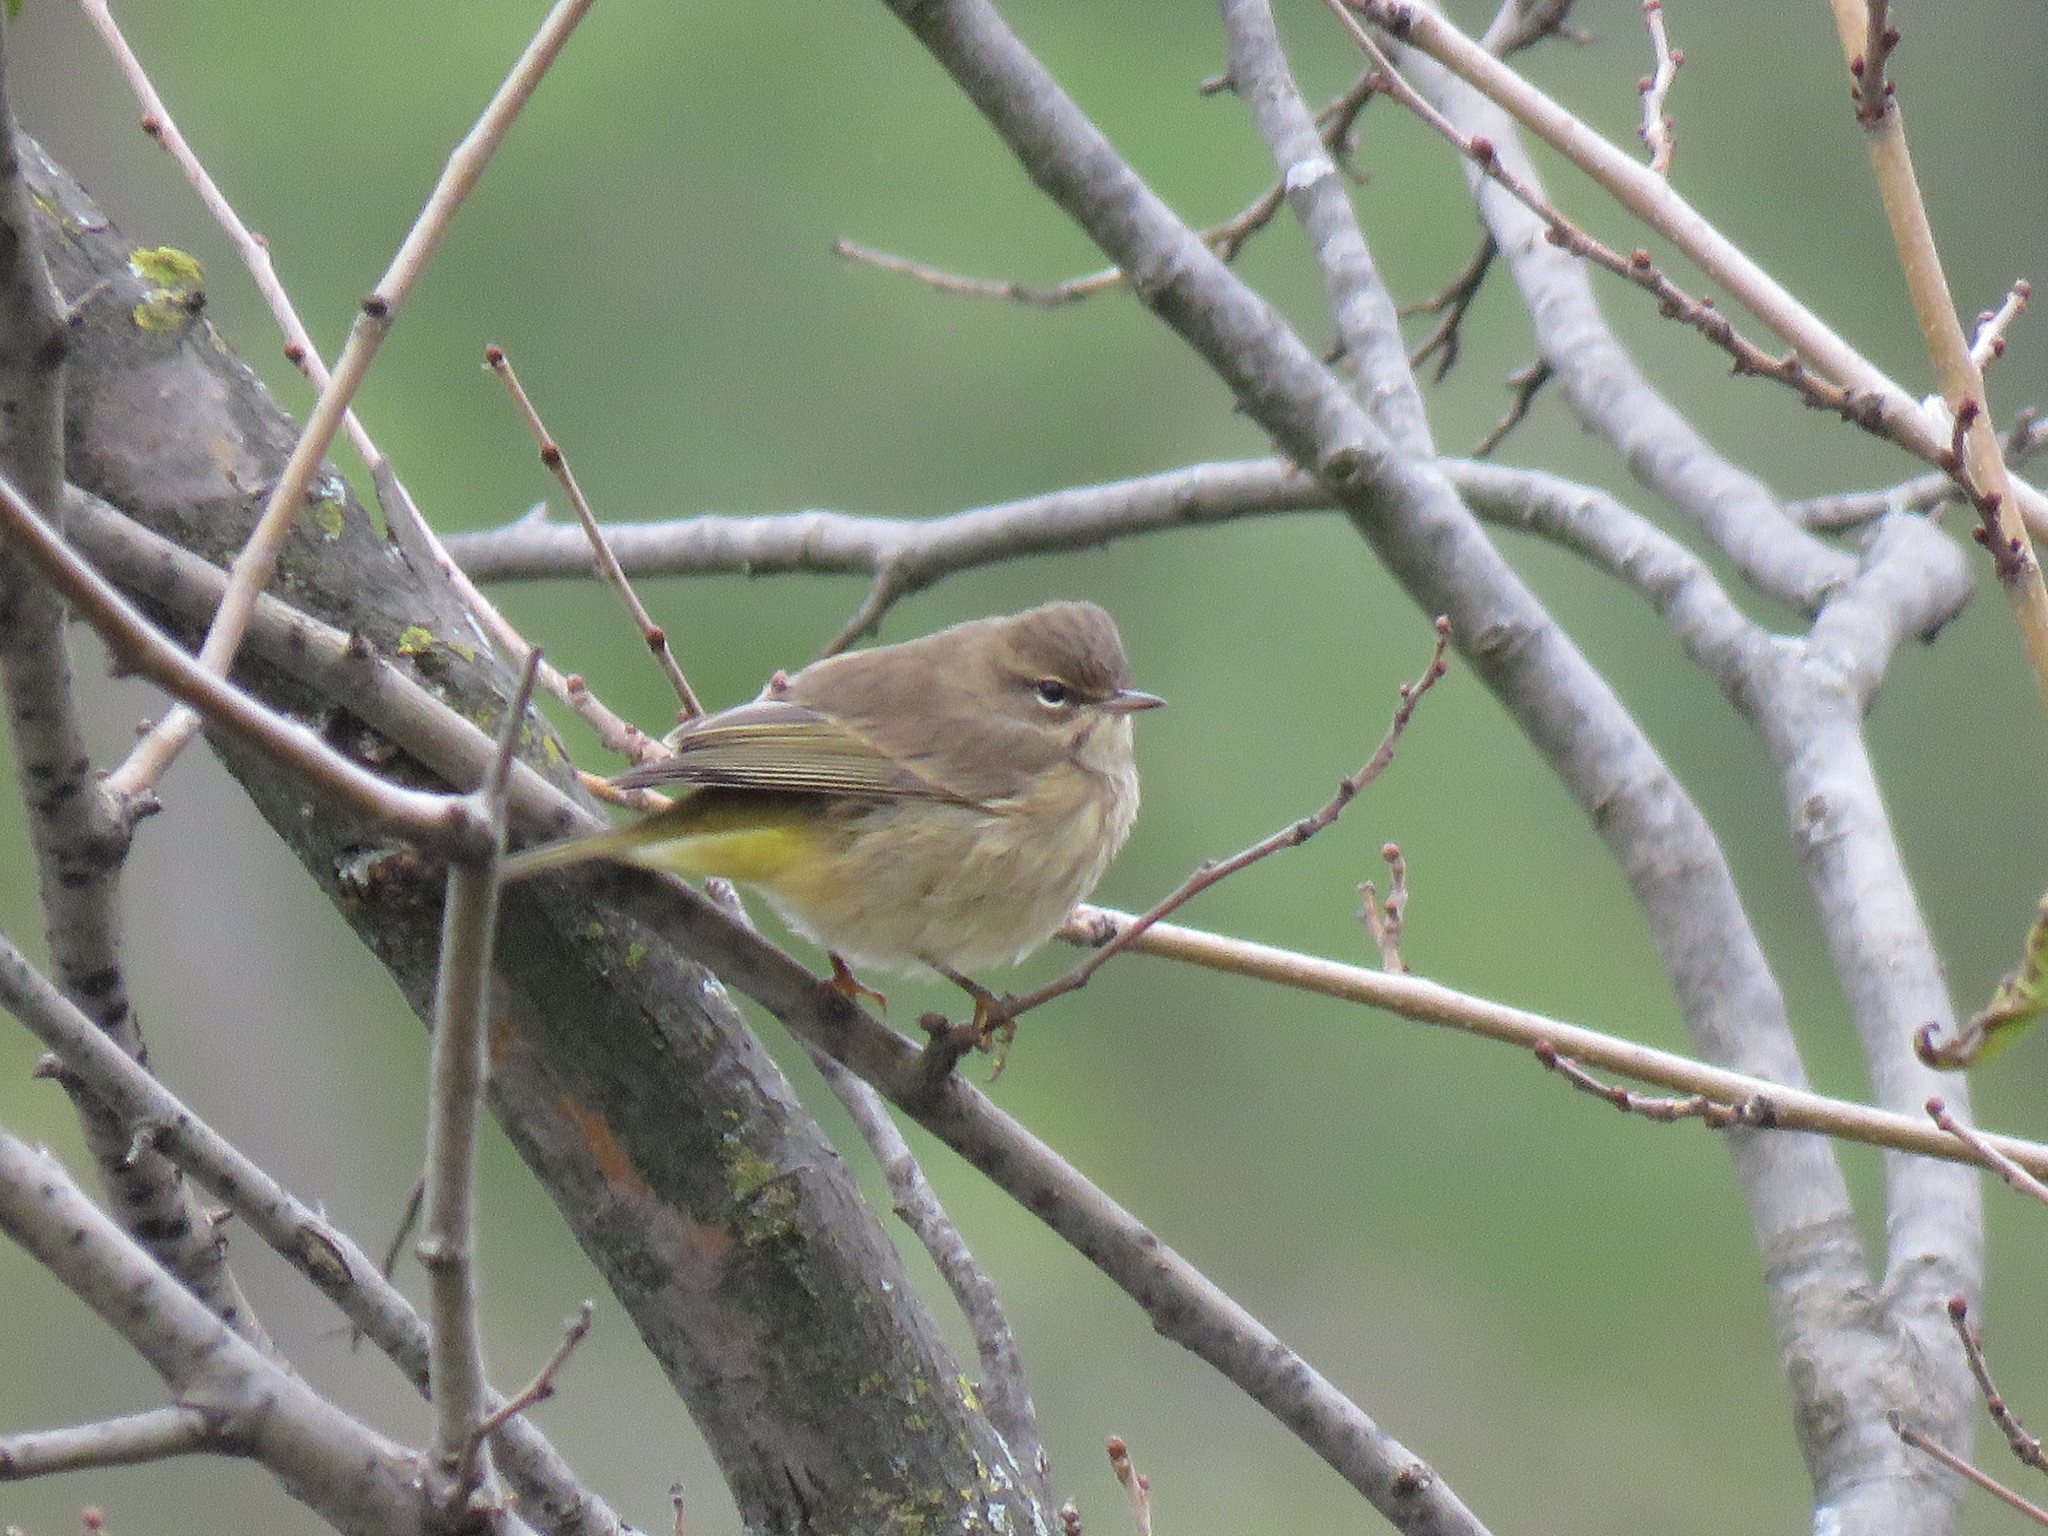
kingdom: Animalia
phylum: Chordata
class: Aves
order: Passeriformes
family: Parulidae
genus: Setophaga
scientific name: Setophaga palmarum
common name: Palm warbler
